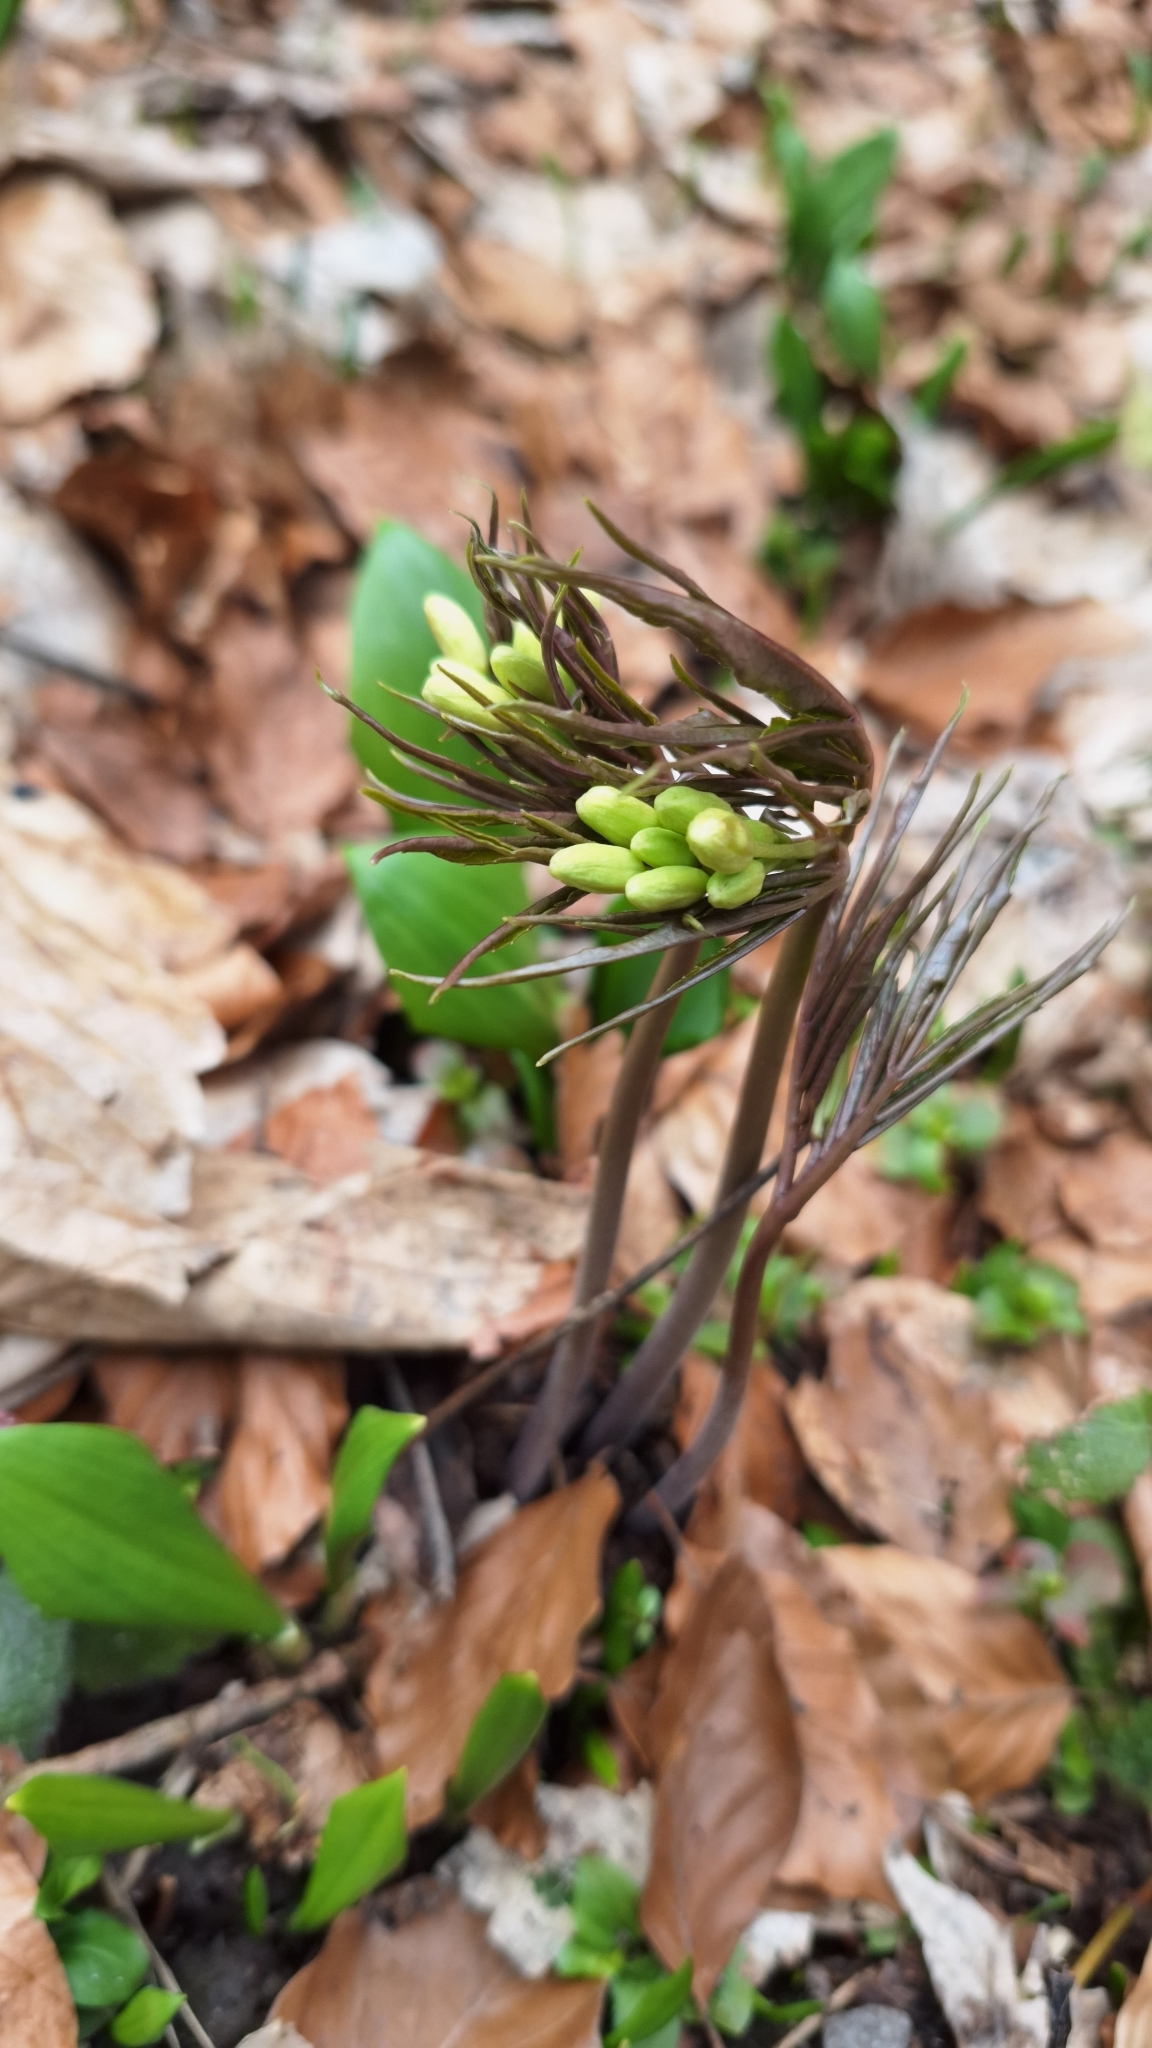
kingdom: Plantae
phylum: Tracheophyta
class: Magnoliopsida
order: Brassicales
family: Brassicaceae
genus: Cardamine
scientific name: Cardamine enneaphyllos
